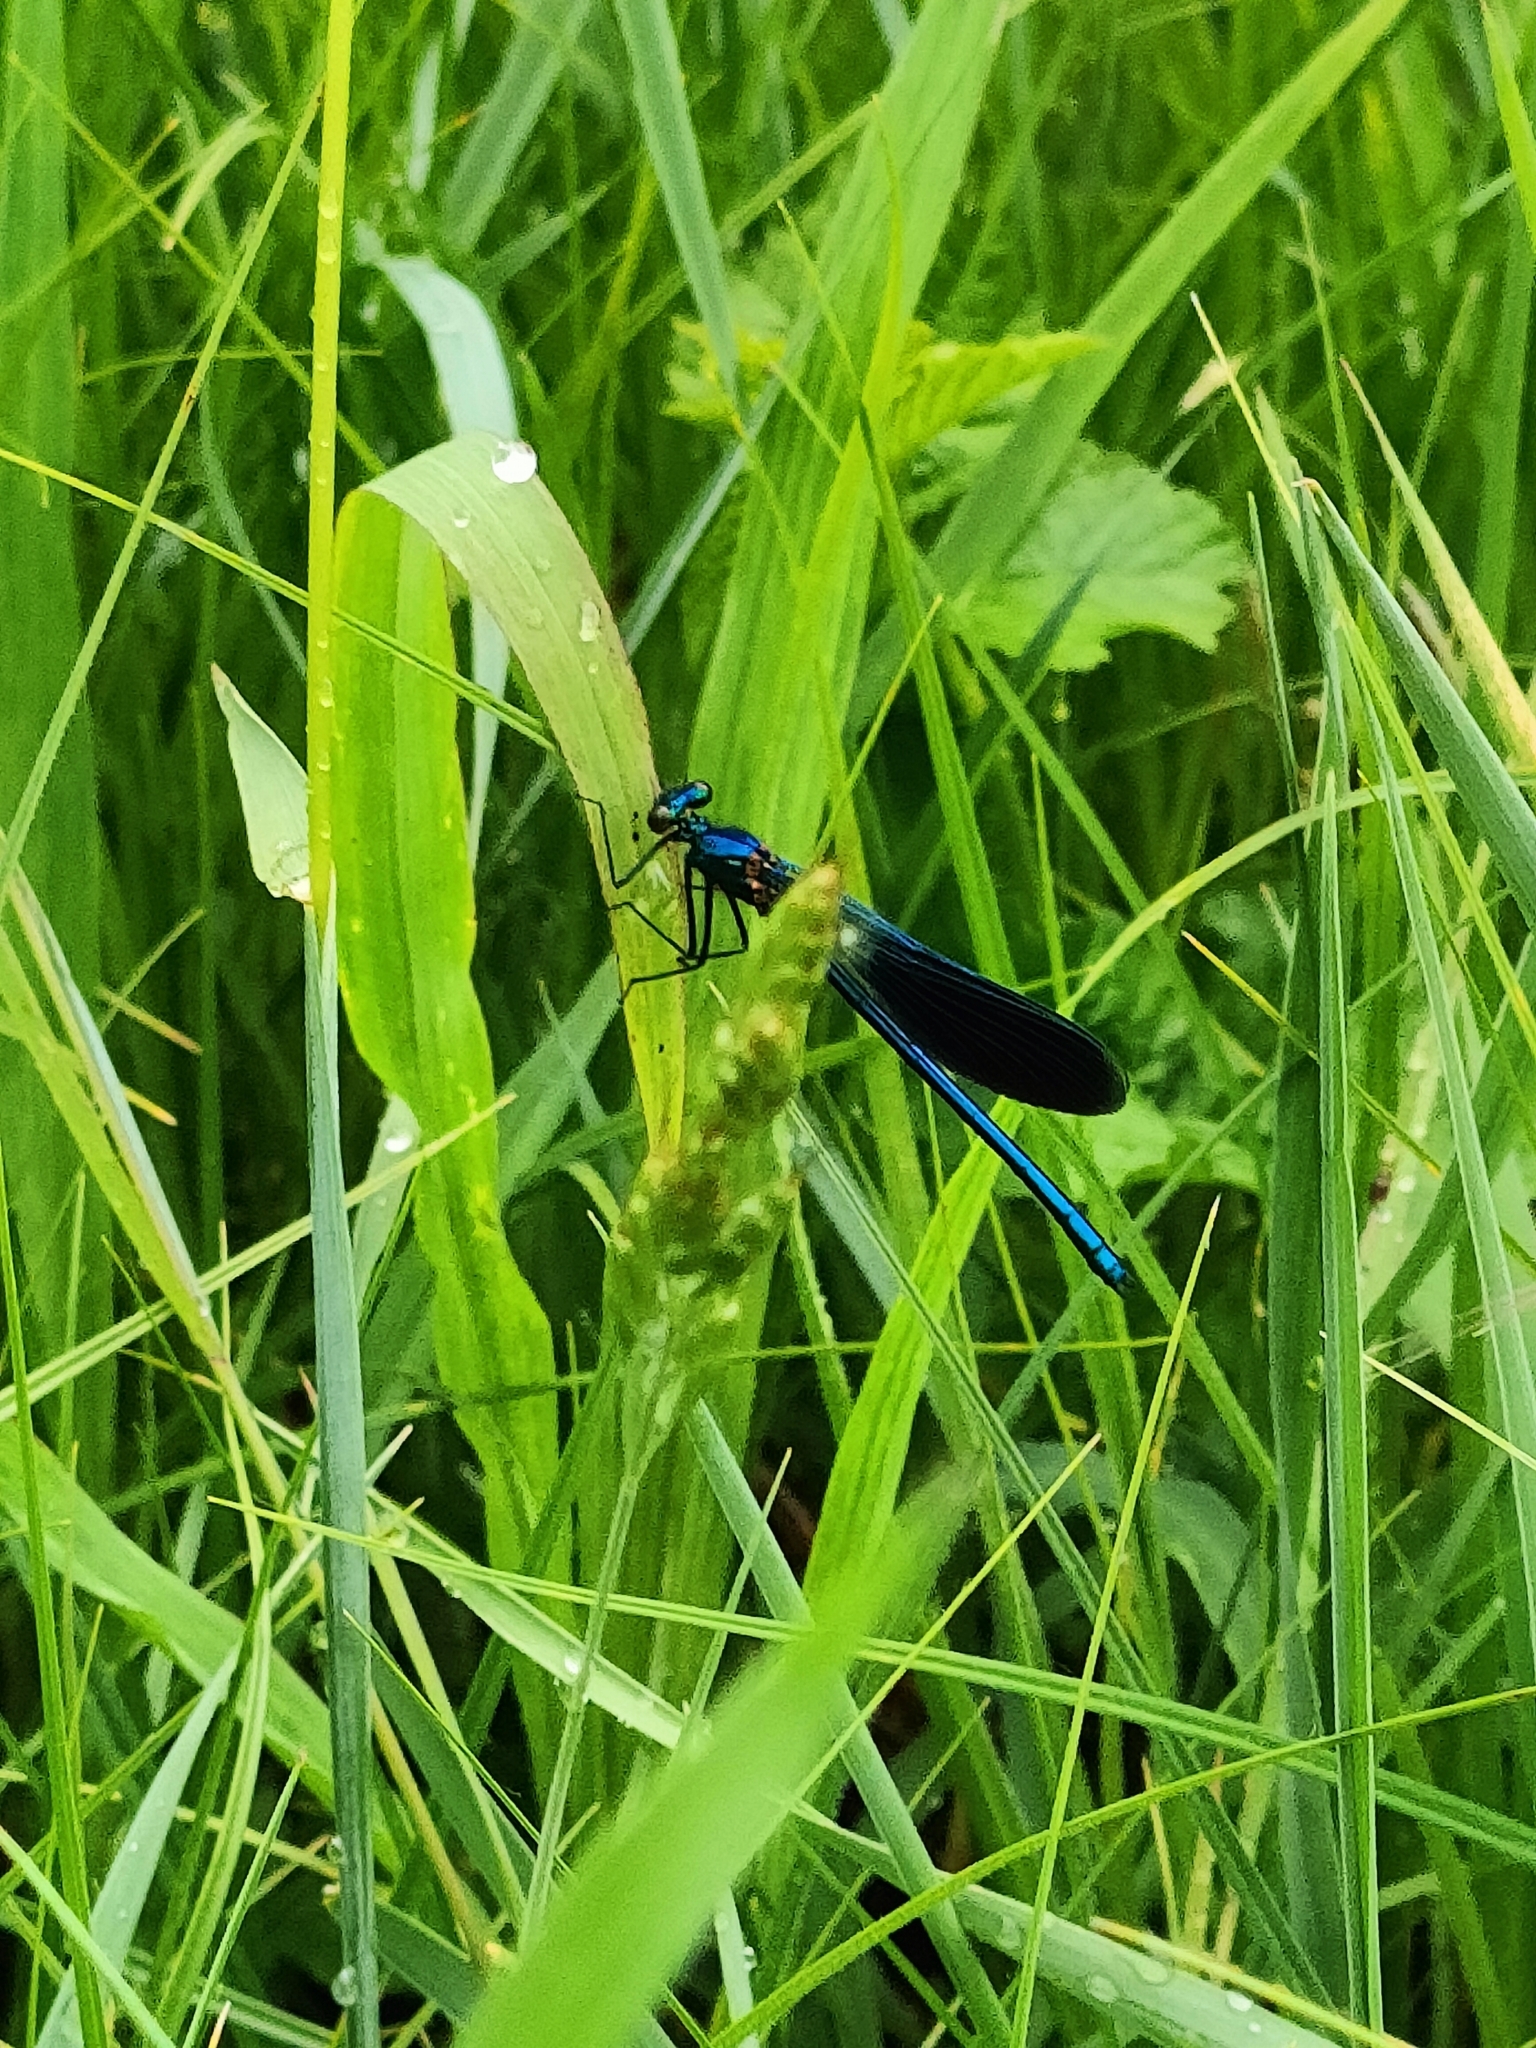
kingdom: Animalia
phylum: Arthropoda
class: Insecta
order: Odonata
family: Calopterygidae
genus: Calopteryx
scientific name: Calopteryx splendens
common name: Banded demoiselle
